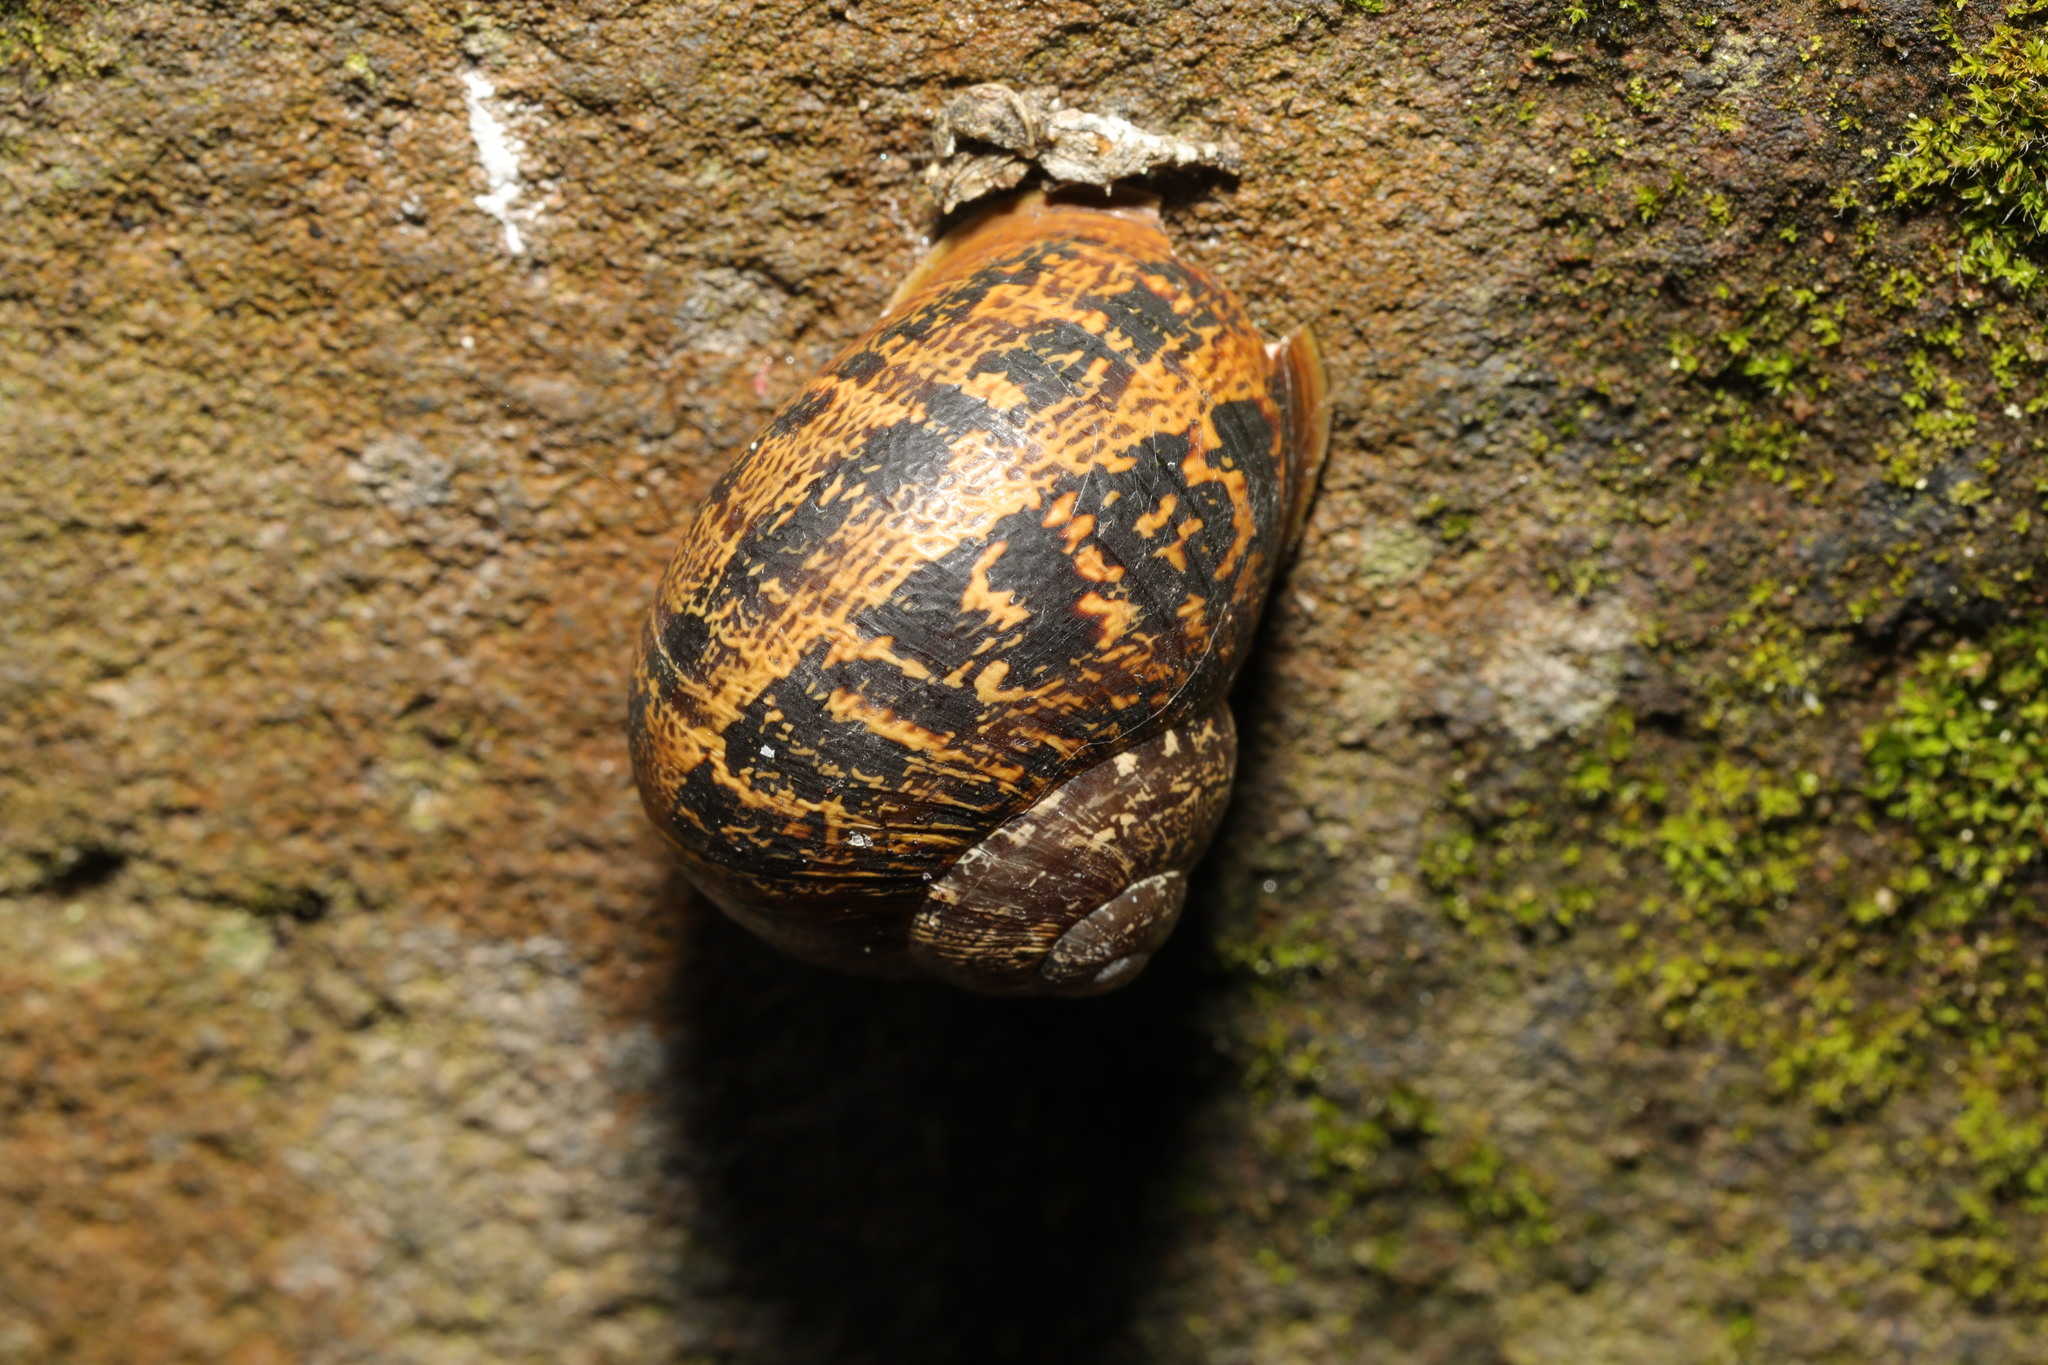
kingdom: Animalia
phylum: Mollusca
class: Gastropoda
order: Stylommatophora
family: Helicidae
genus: Cornu
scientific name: Cornu aspersum
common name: Brown garden snail
